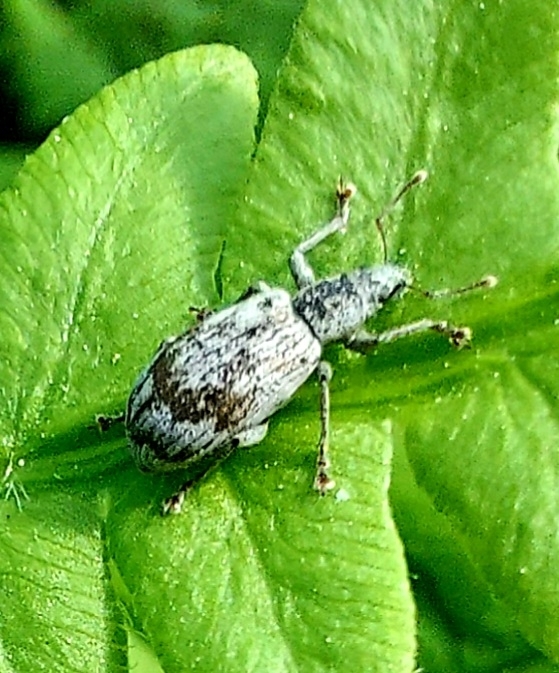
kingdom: Animalia
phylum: Arthropoda
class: Insecta
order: Coleoptera
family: Curculionidae
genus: Polydrusus
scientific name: Polydrusus tereticollis
